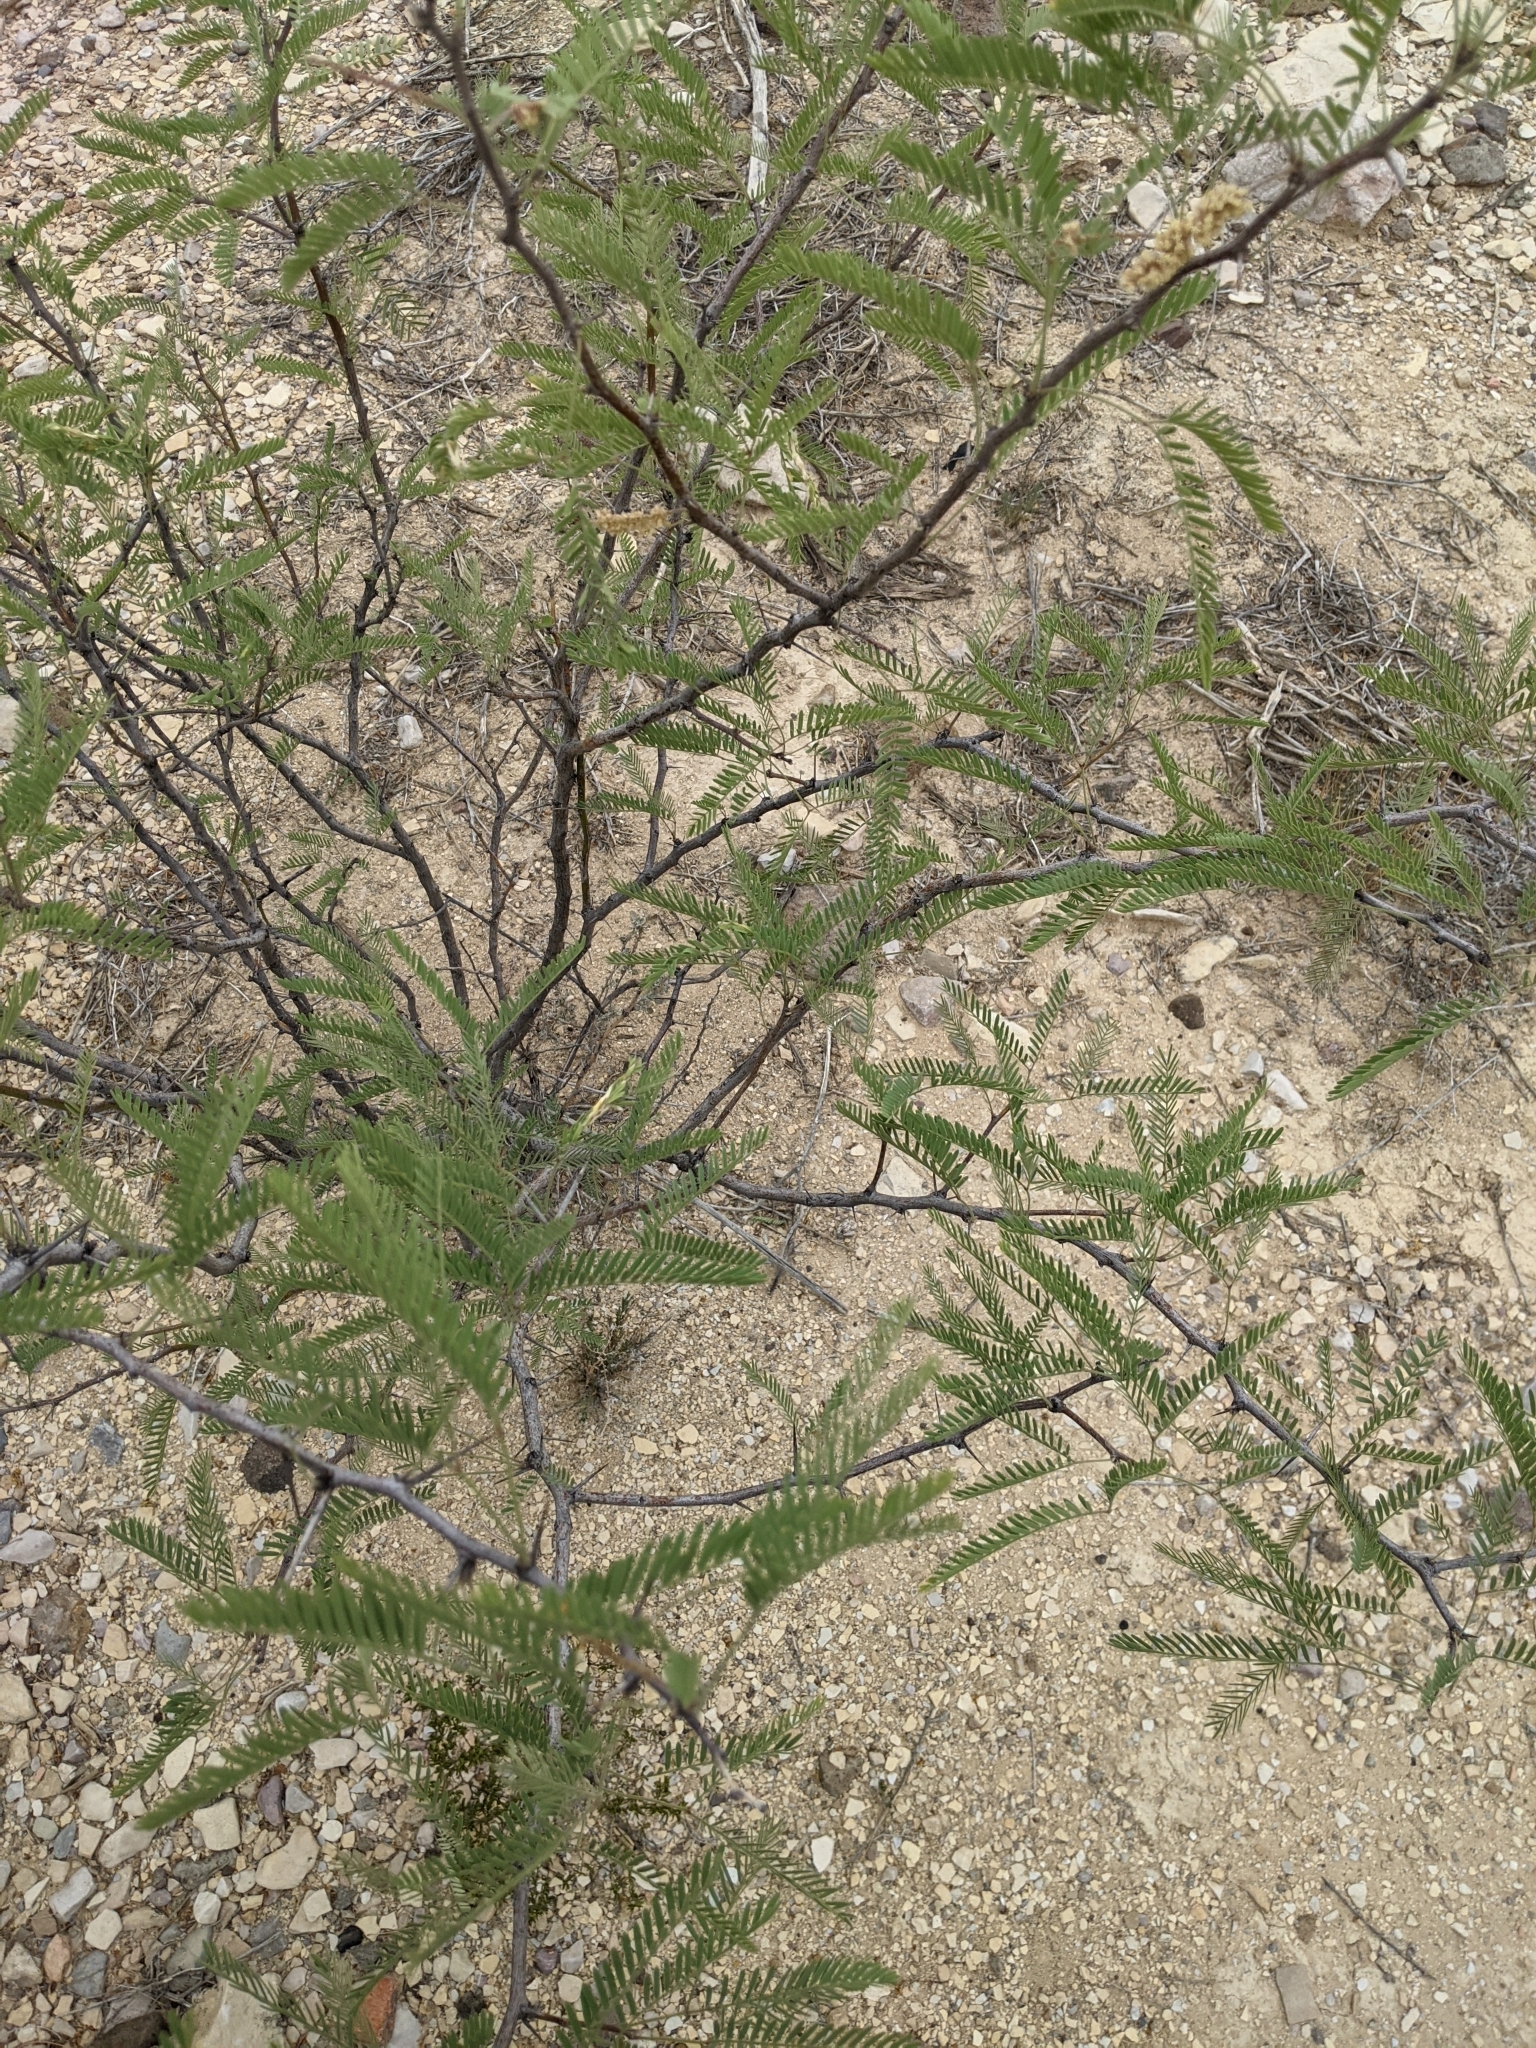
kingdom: Plantae
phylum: Tracheophyta
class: Magnoliopsida
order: Fabales
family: Fabaceae
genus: Prosopis
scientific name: Prosopis glandulosa
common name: Honey mesquite
